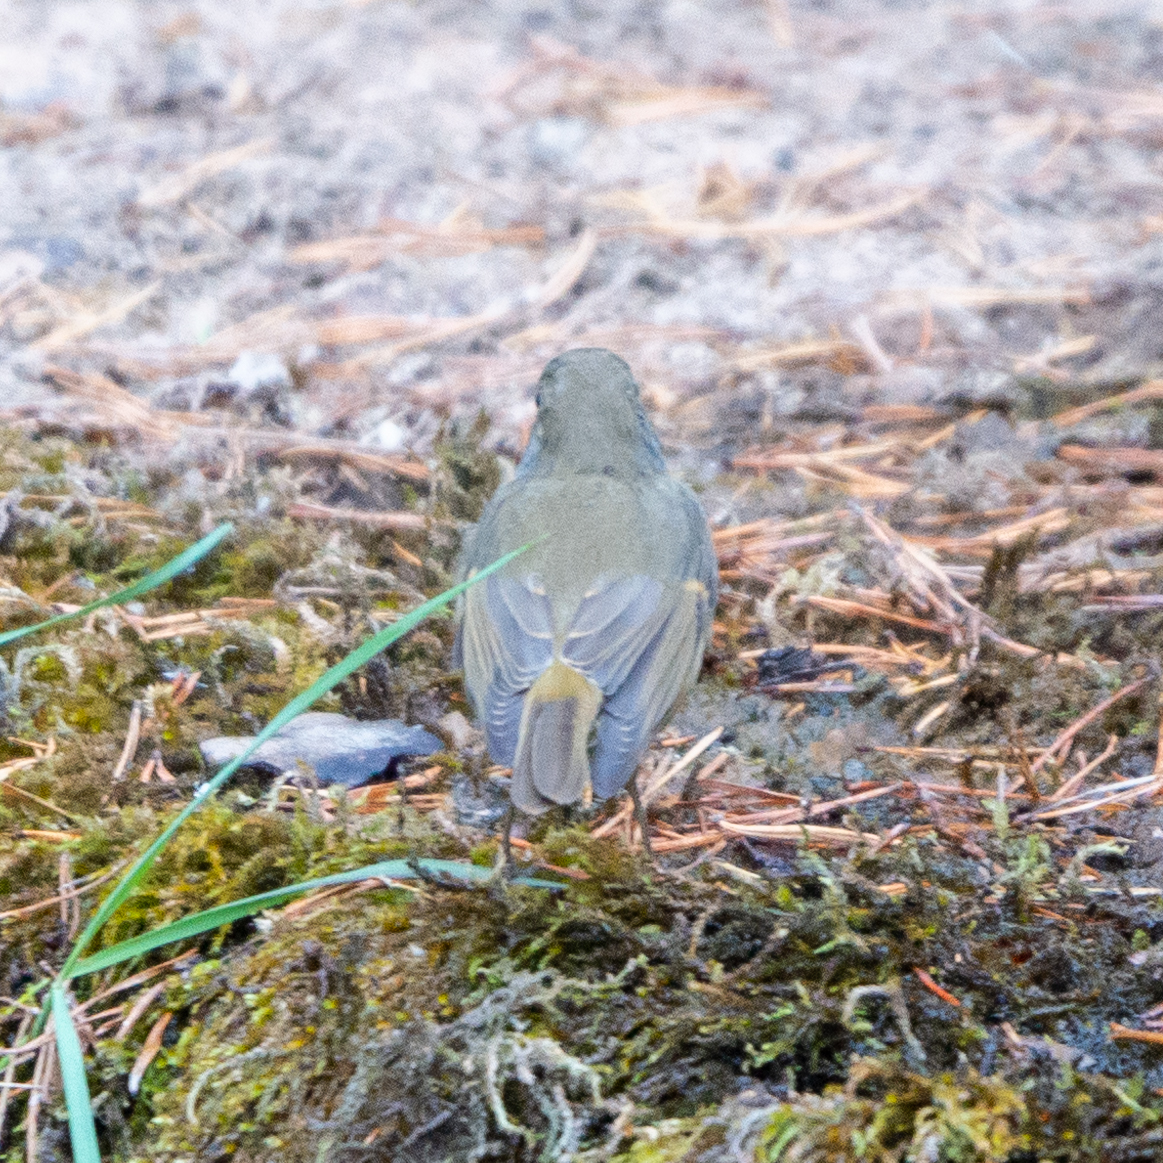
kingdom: Animalia
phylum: Chordata
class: Aves
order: Passeriformes
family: Muscicapidae
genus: Erithacus
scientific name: Erithacus rubecula
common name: European robin
